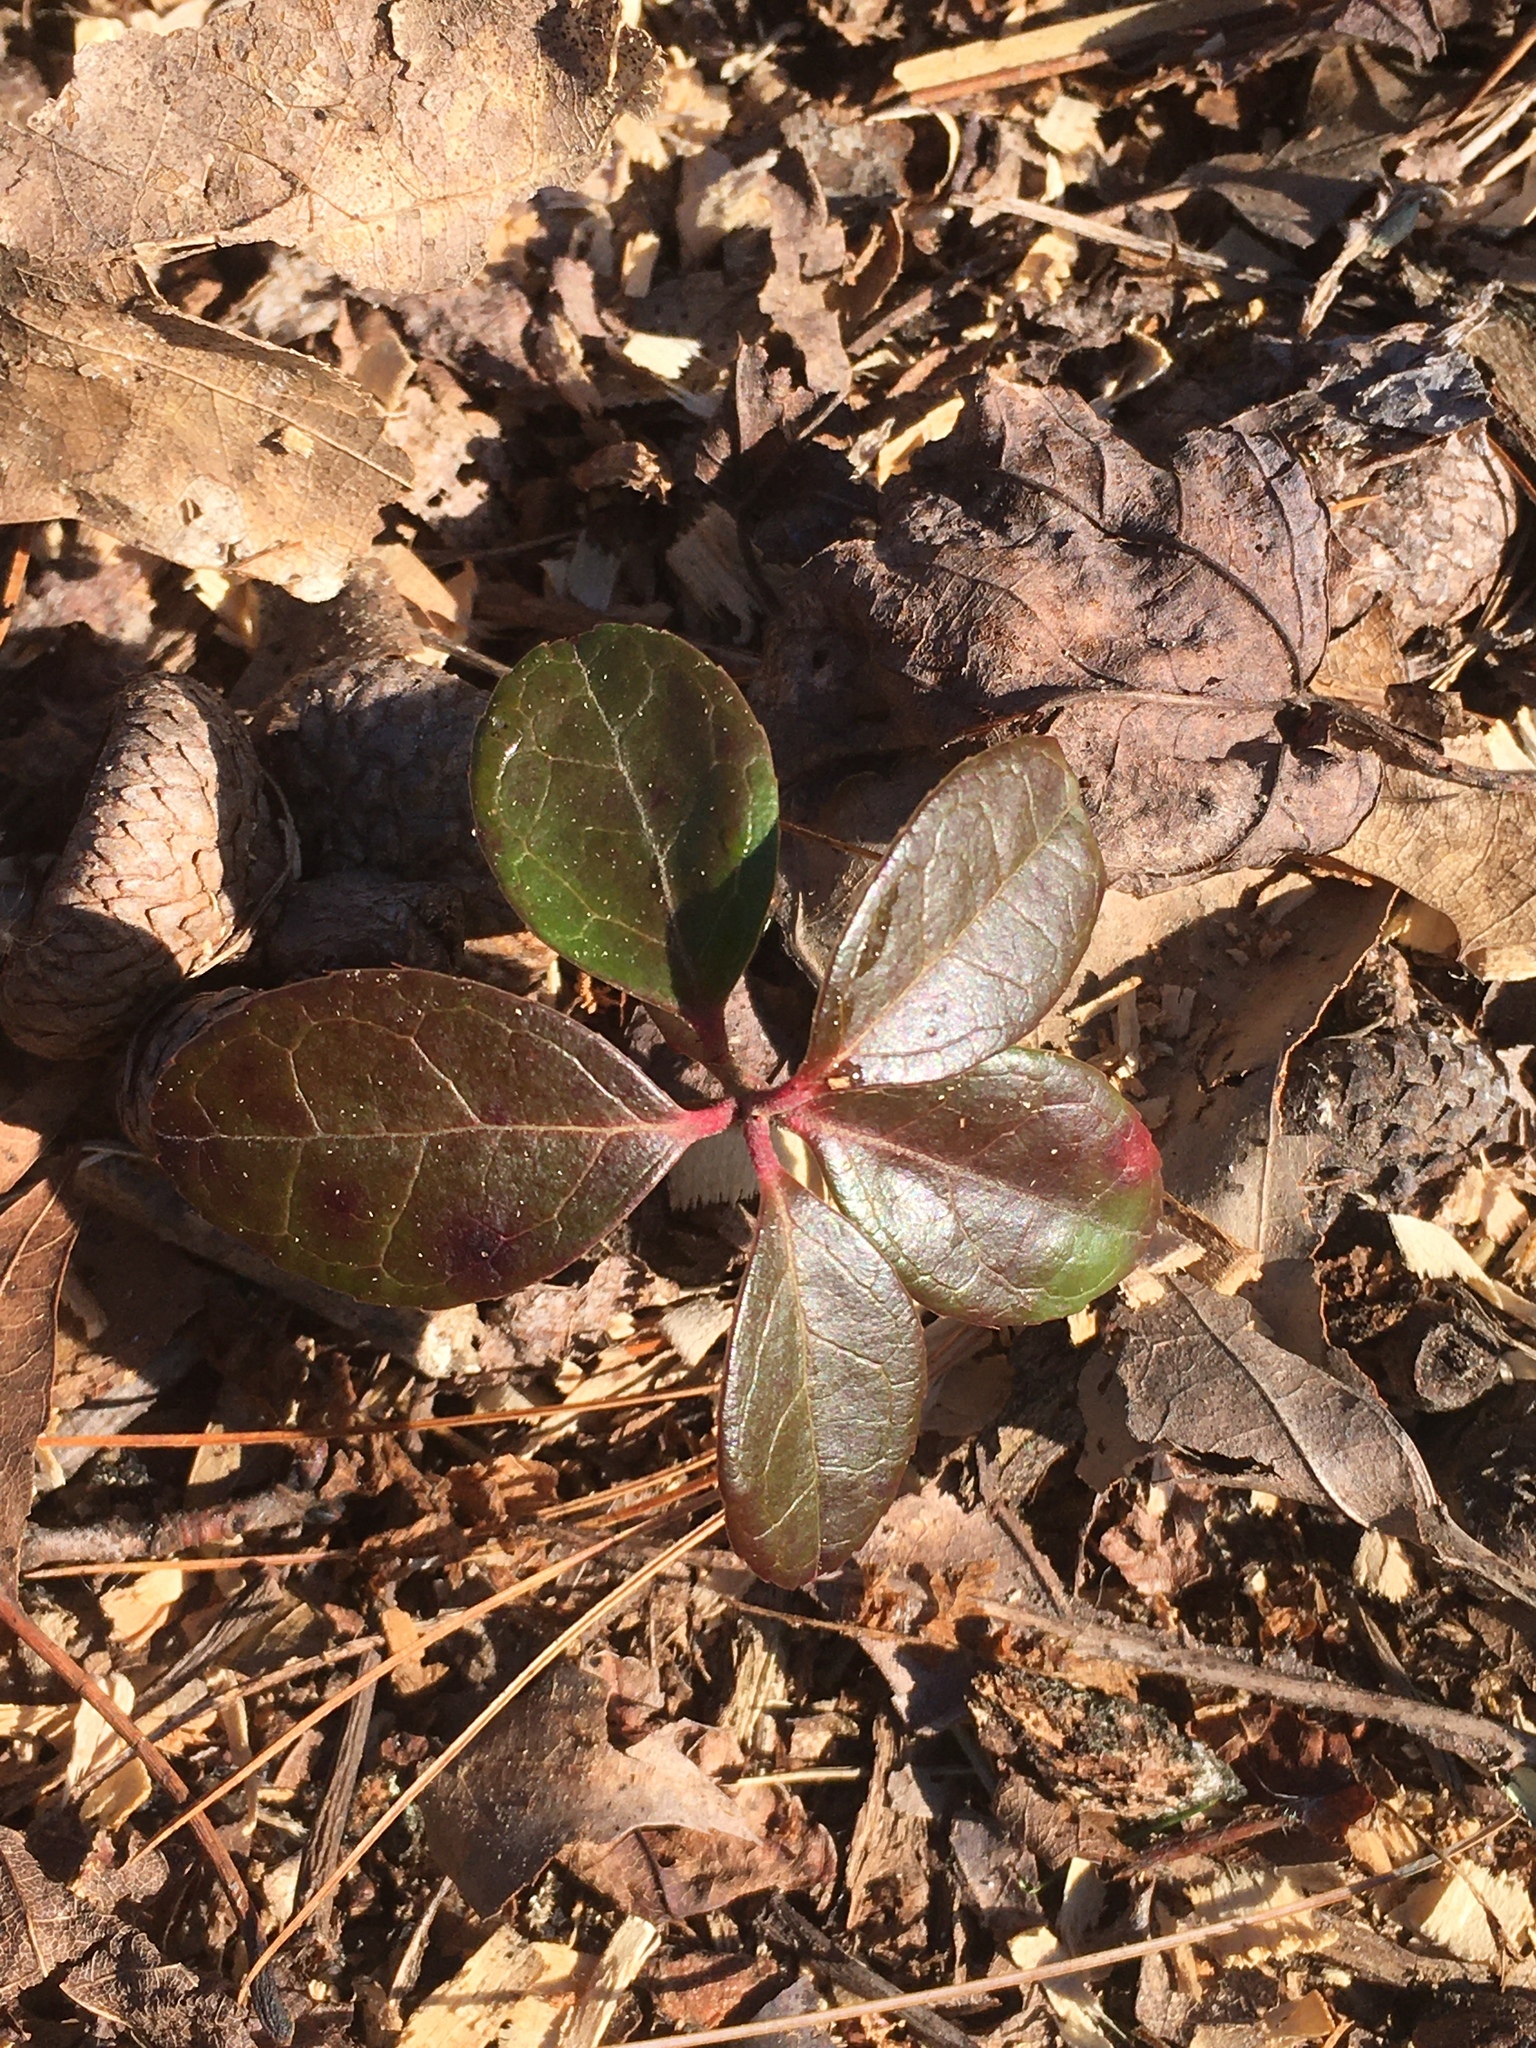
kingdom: Plantae
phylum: Tracheophyta
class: Magnoliopsida
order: Ericales
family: Ericaceae
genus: Gaultheria
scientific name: Gaultheria procumbens
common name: Checkerberry
